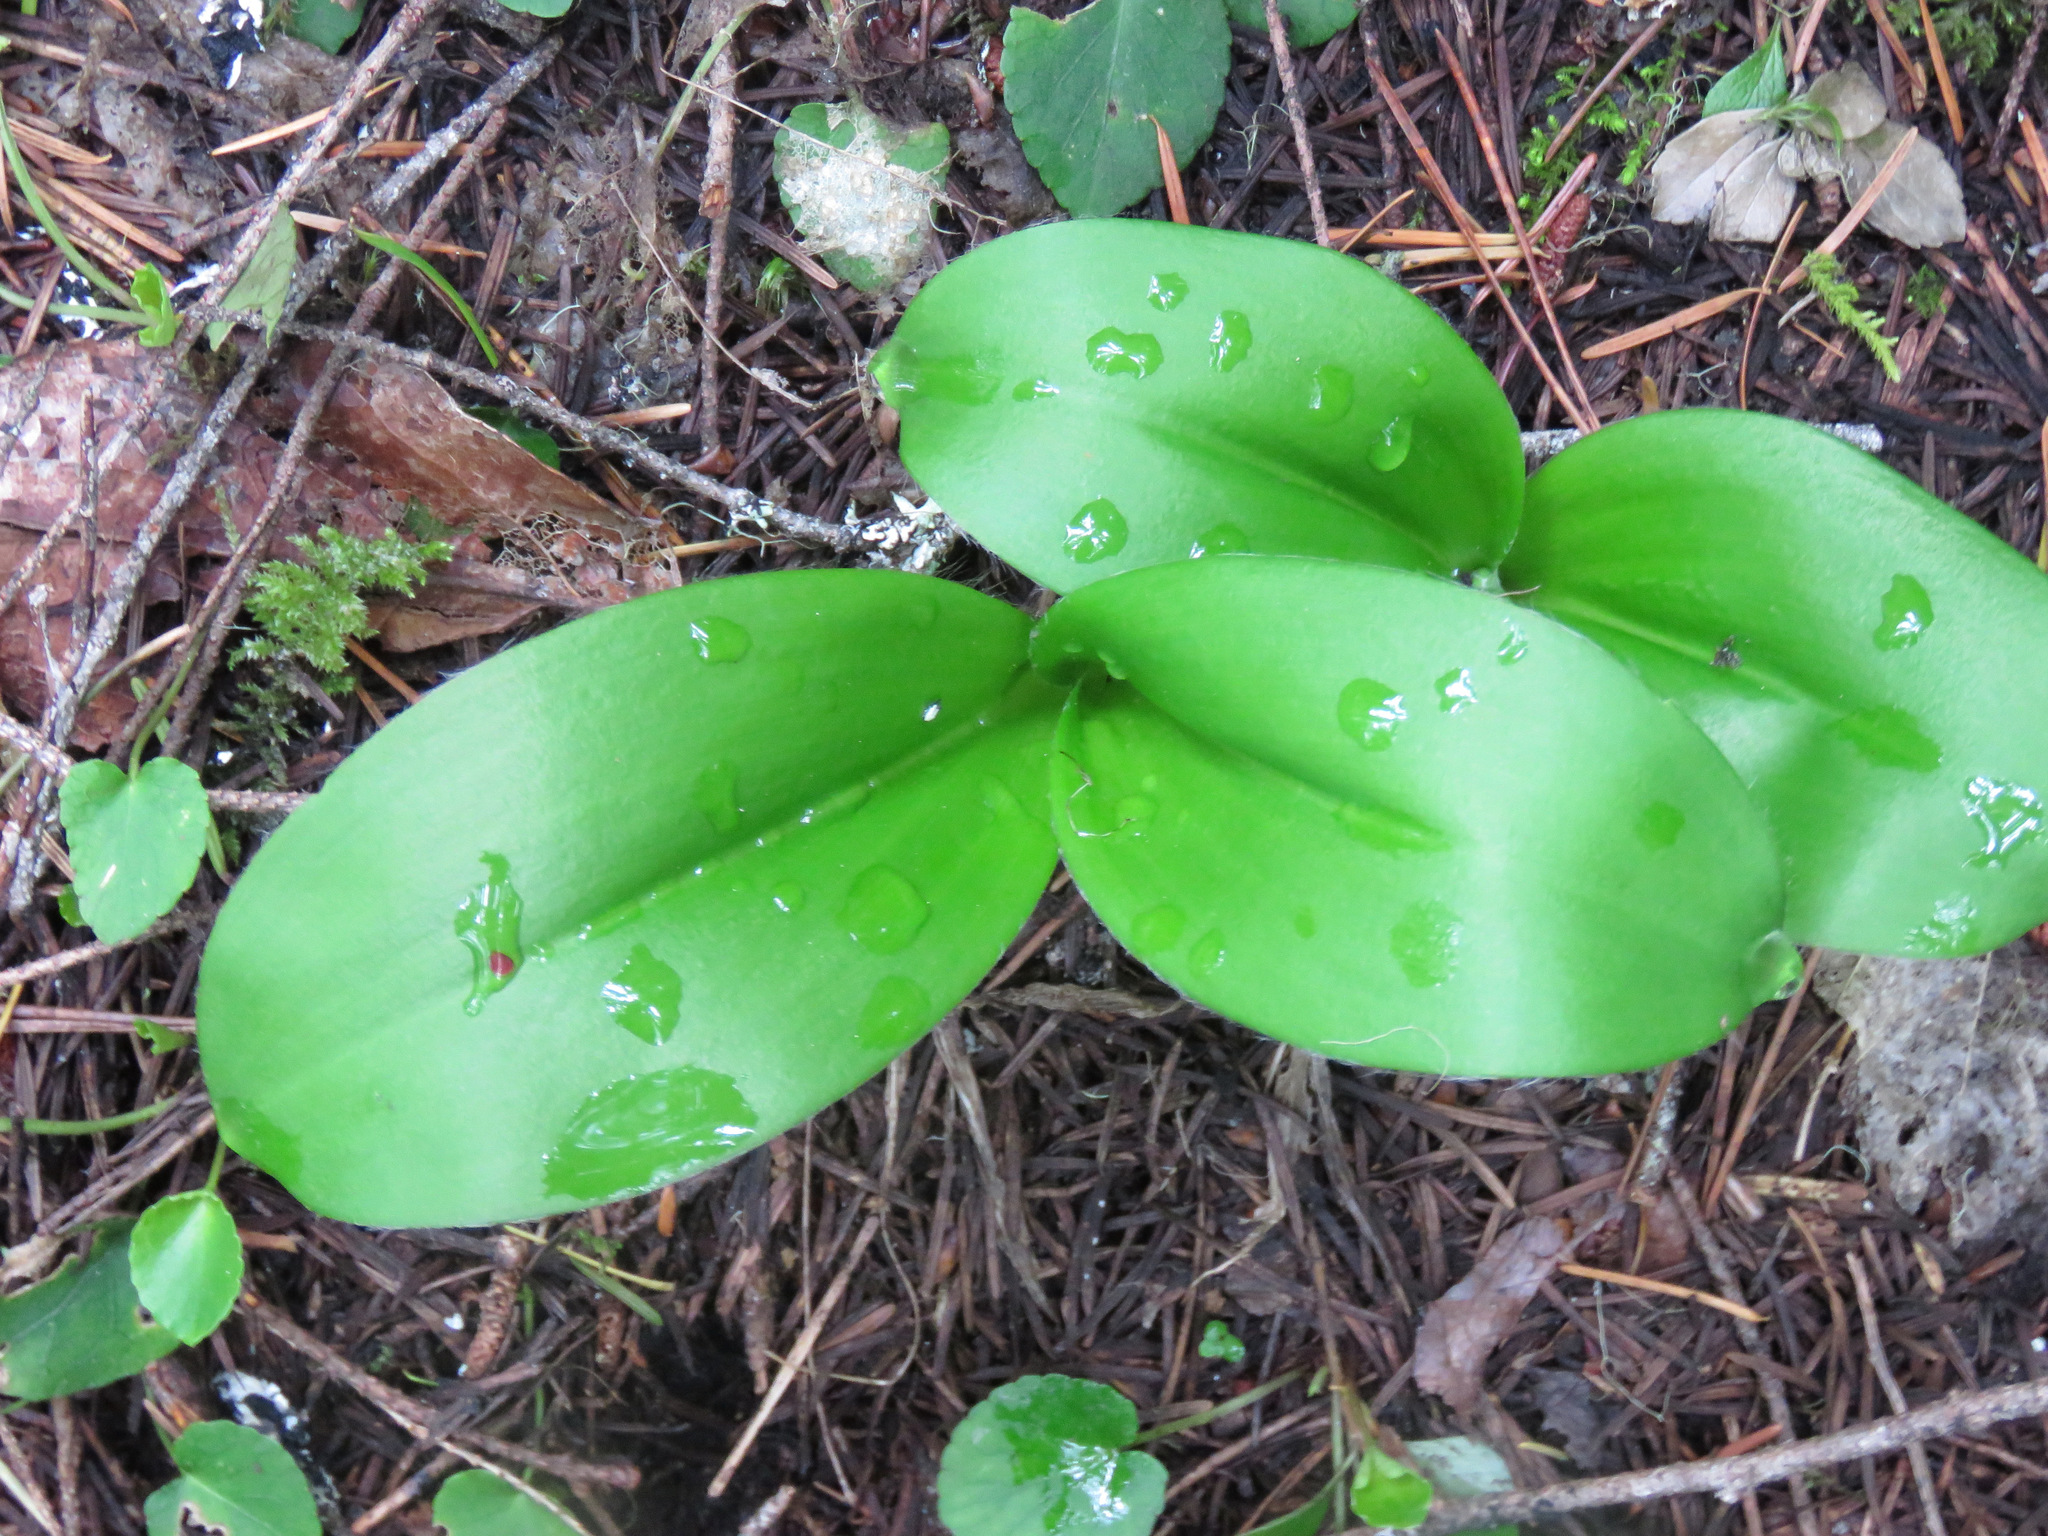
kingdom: Plantae
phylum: Tracheophyta
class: Liliopsida
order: Liliales
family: Liliaceae
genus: Clintonia
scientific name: Clintonia uniflora
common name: Queen's cup
